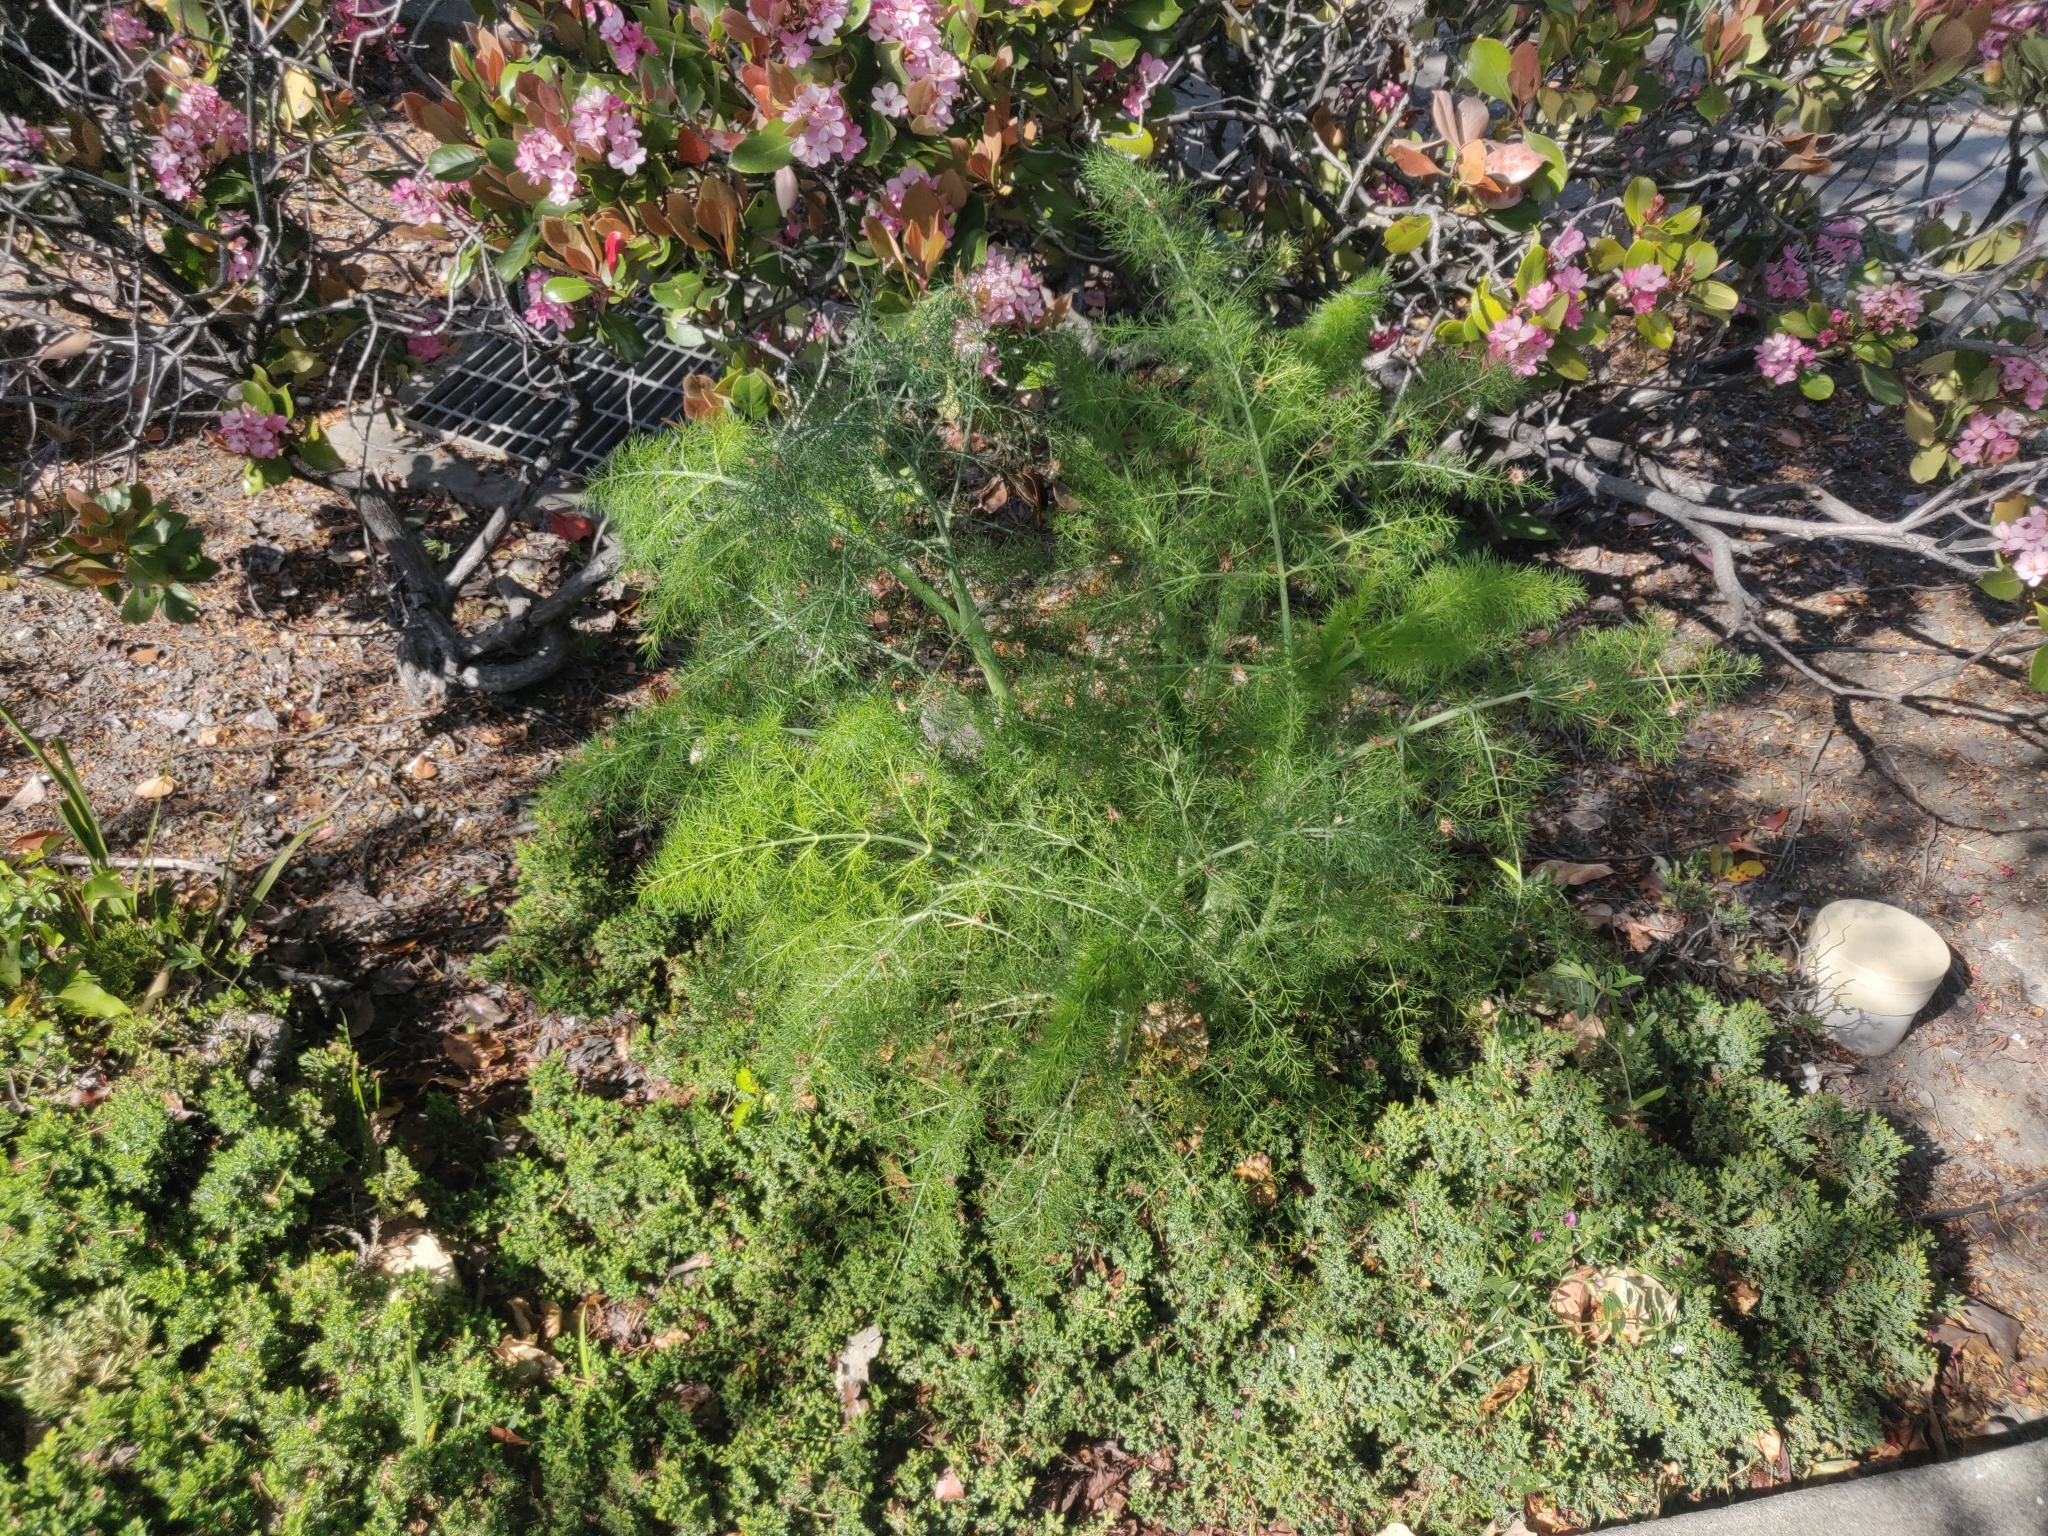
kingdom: Plantae
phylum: Tracheophyta
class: Magnoliopsida
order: Apiales
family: Apiaceae
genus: Foeniculum
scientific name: Foeniculum vulgare
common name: Fennel
